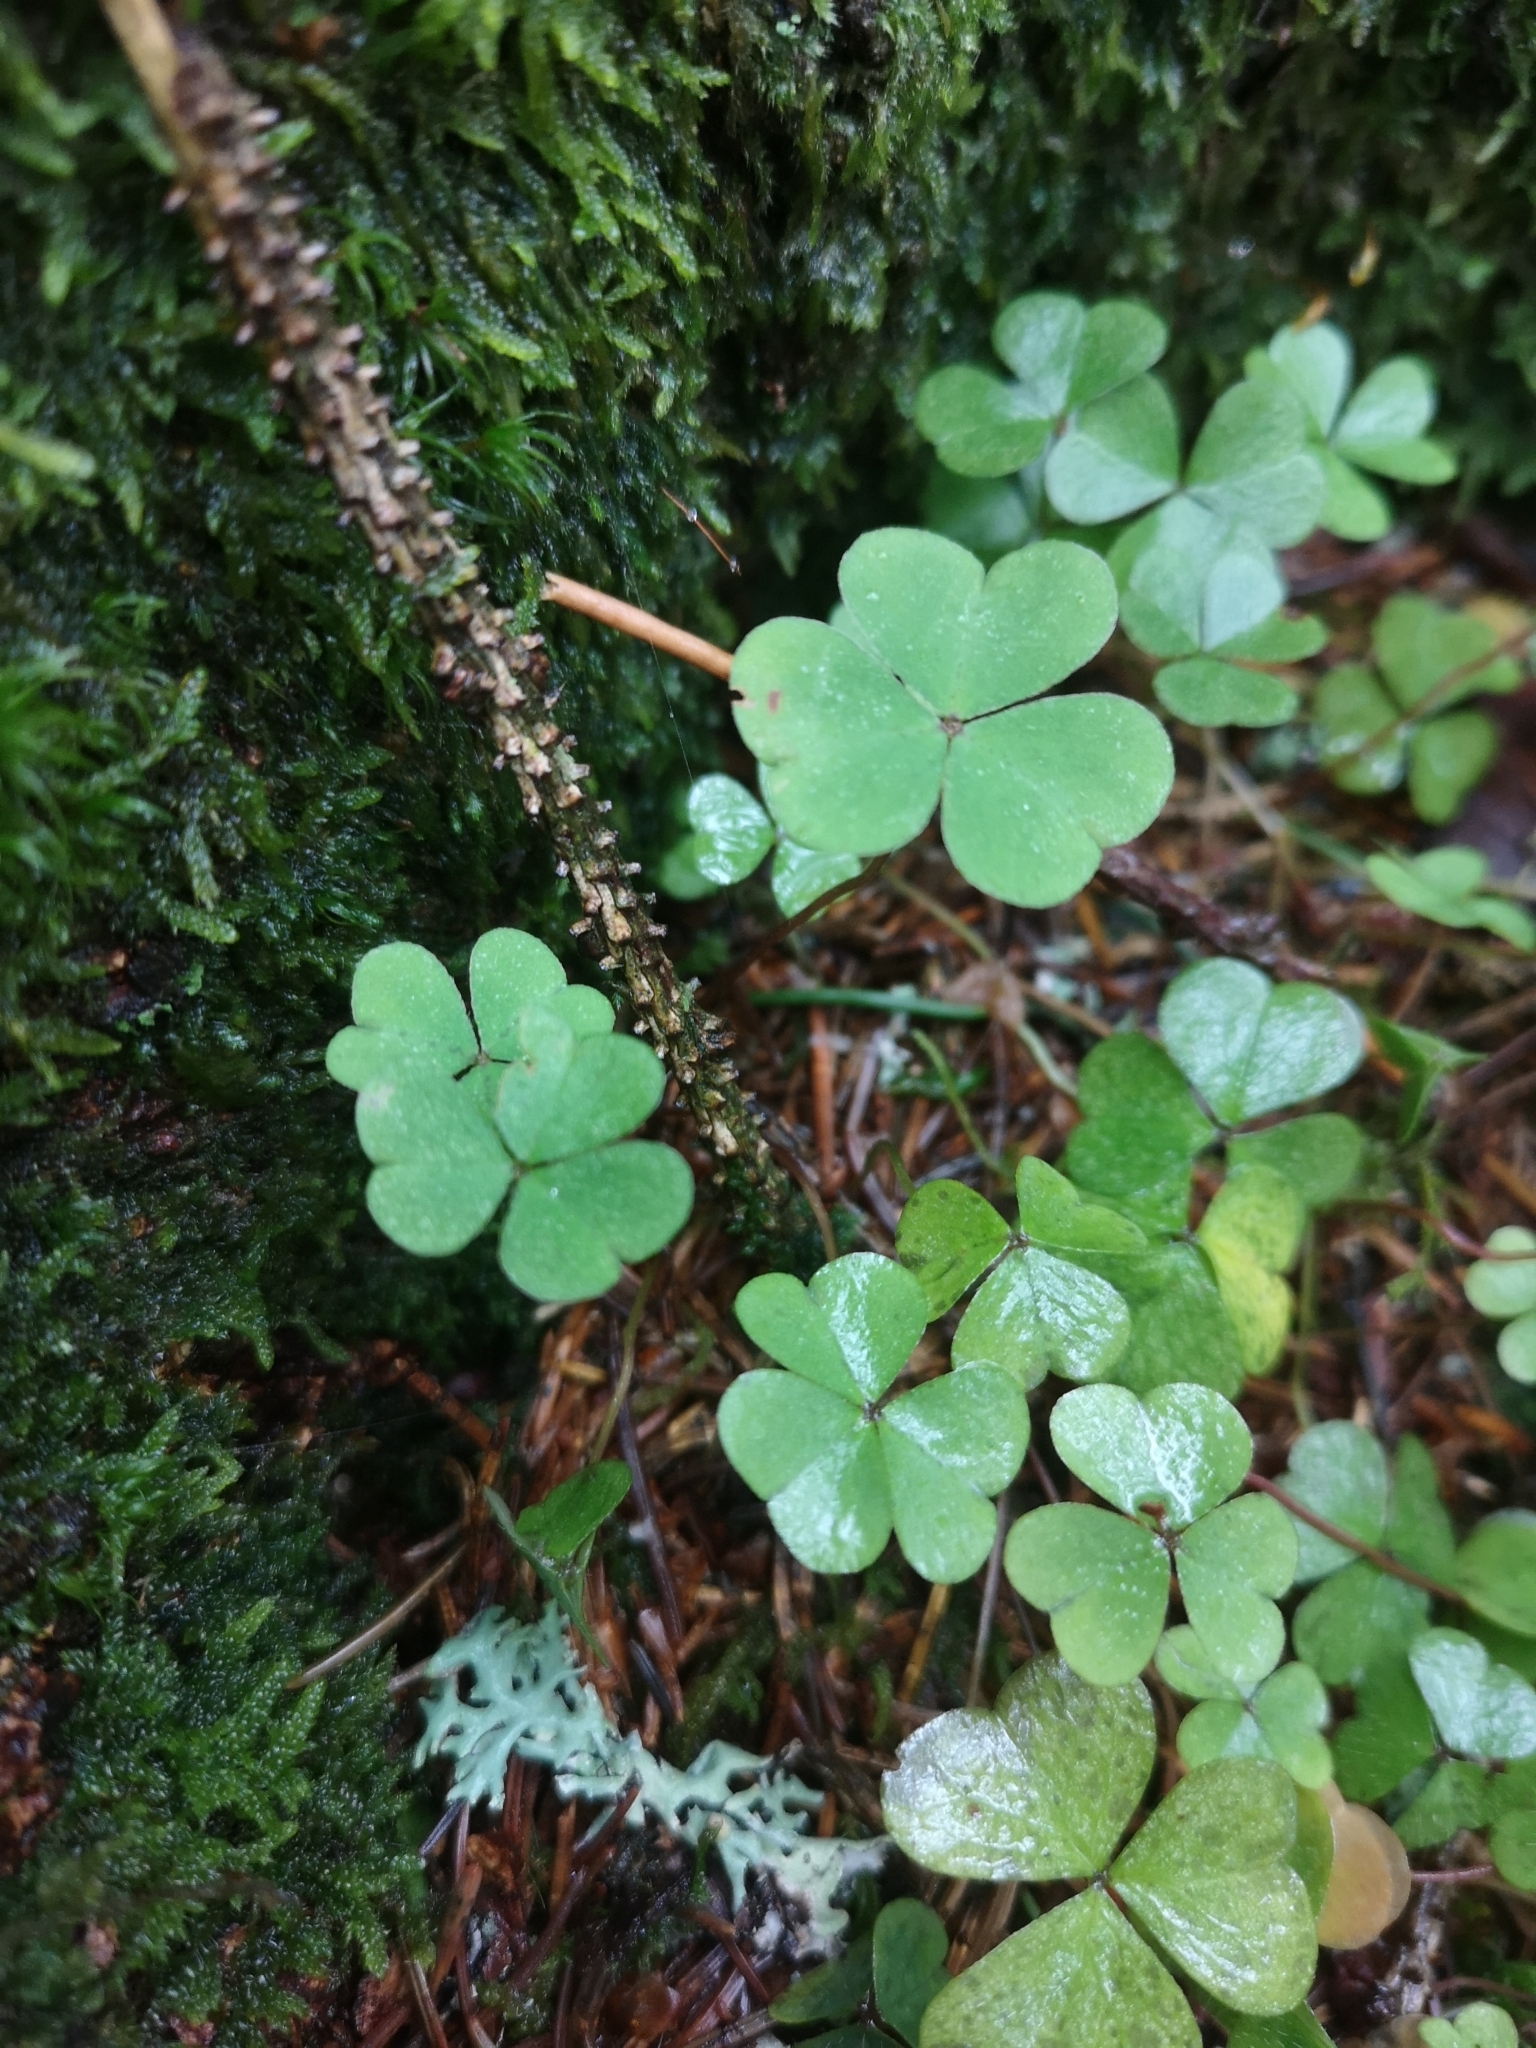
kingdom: Plantae
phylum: Tracheophyta
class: Magnoliopsida
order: Oxalidales
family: Oxalidaceae
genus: Oxalis
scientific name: Oxalis acetosella
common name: Wood-sorrel
